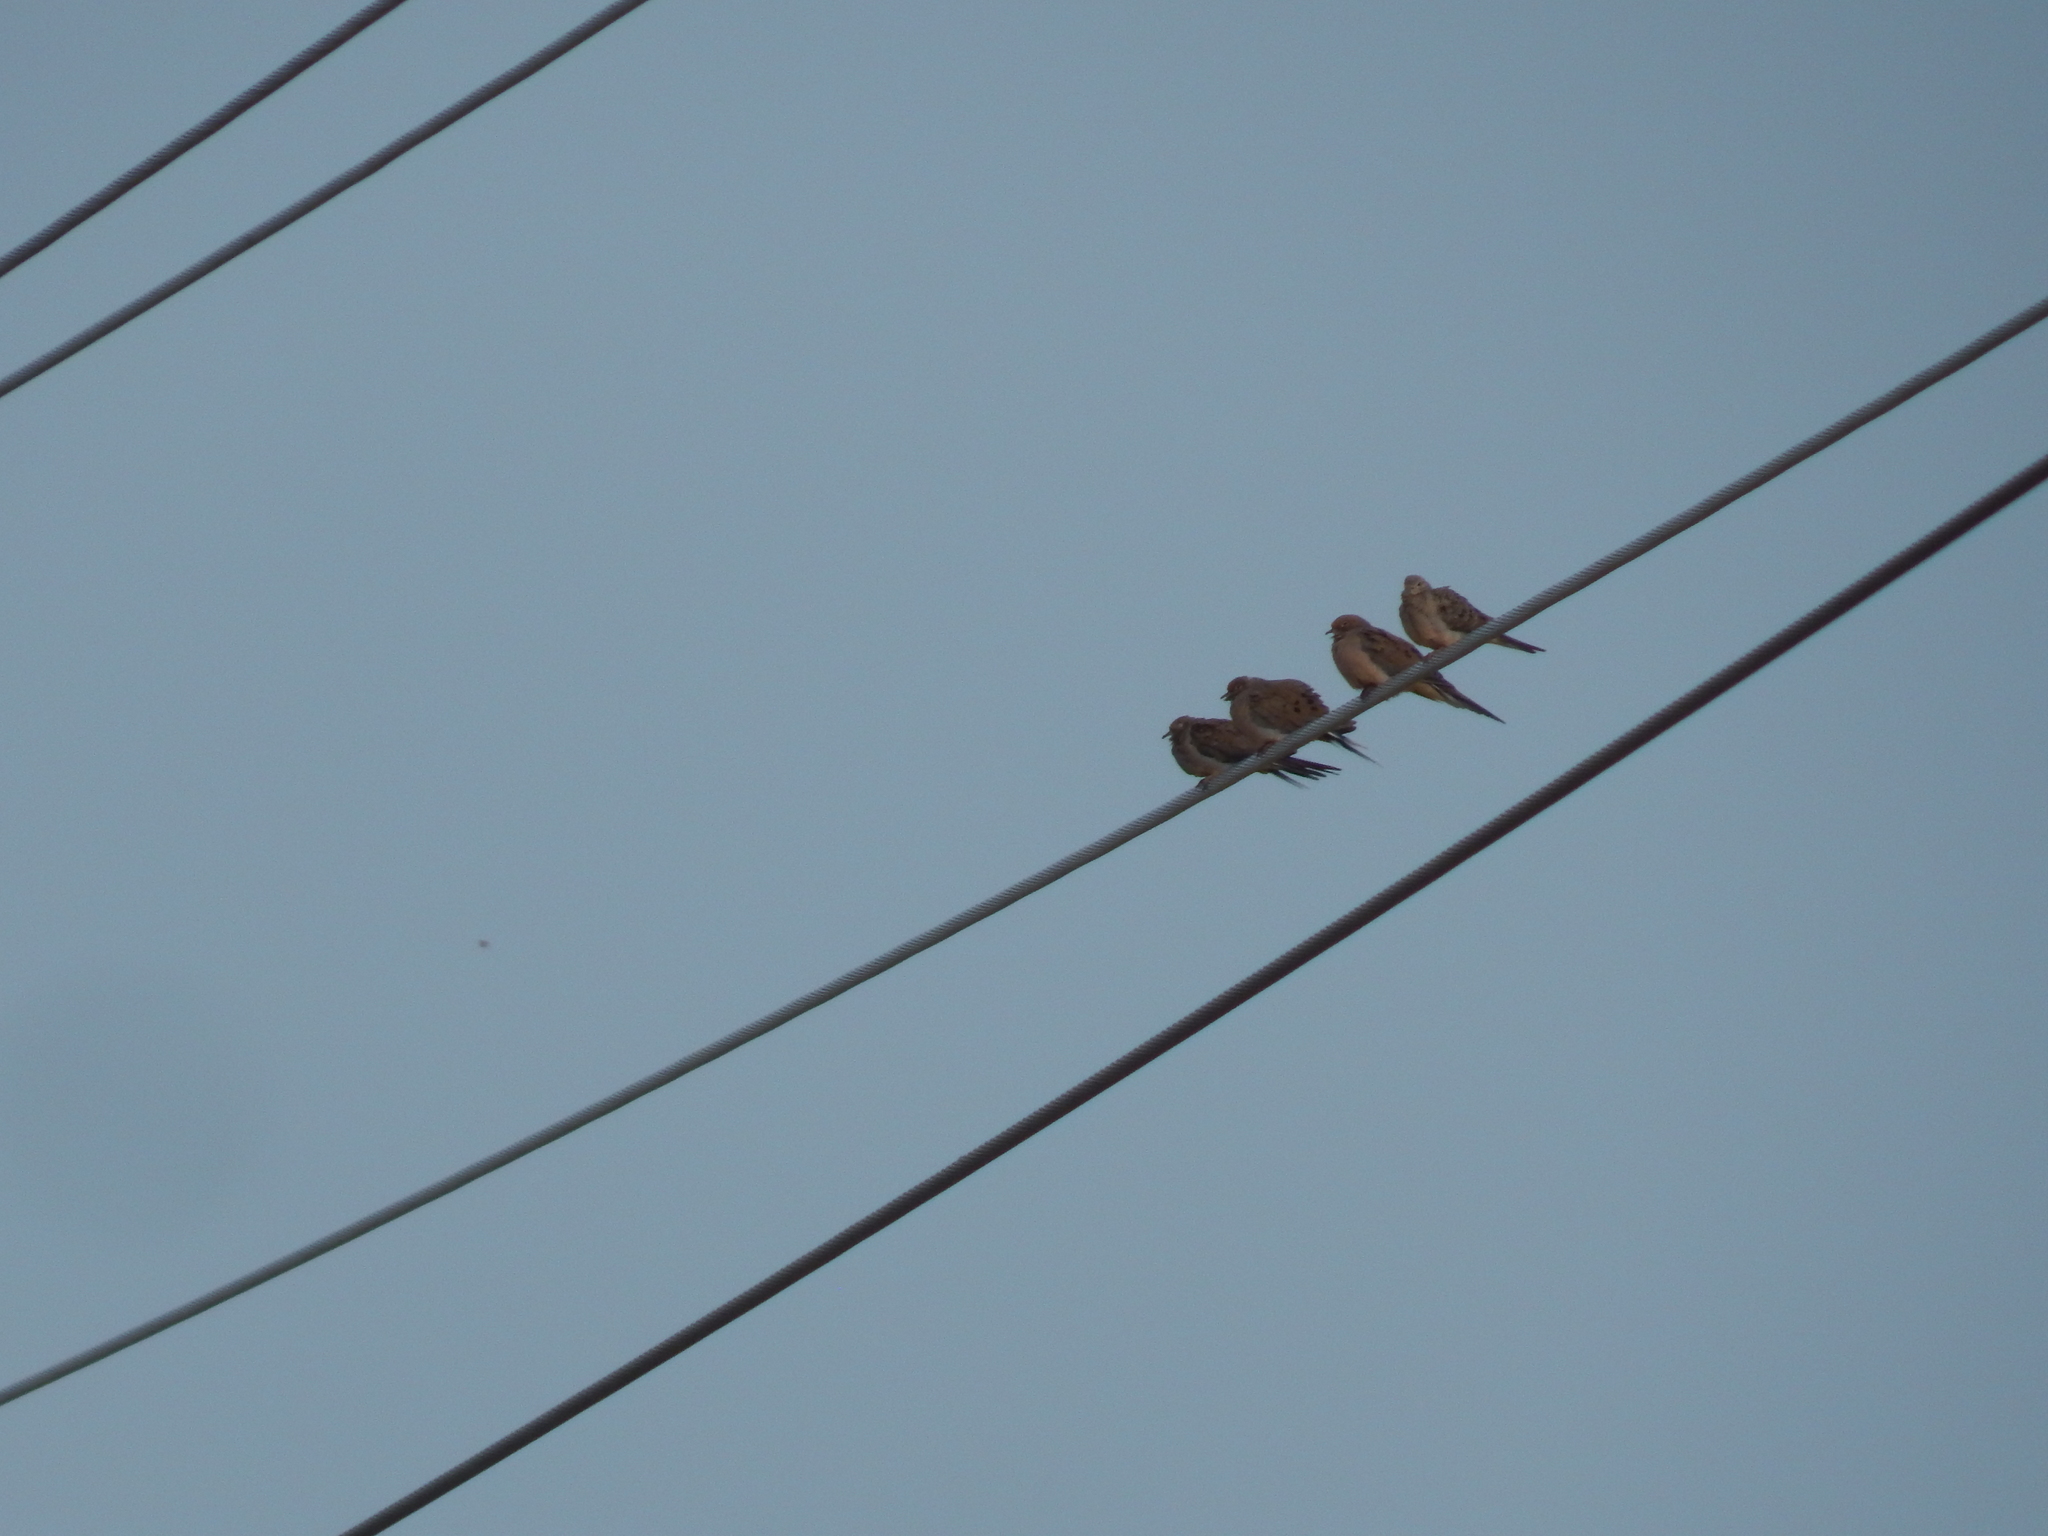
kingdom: Animalia
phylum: Chordata
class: Aves
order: Columbiformes
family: Columbidae
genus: Zenaida
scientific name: Zenaida macroura
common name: Mourning dove
